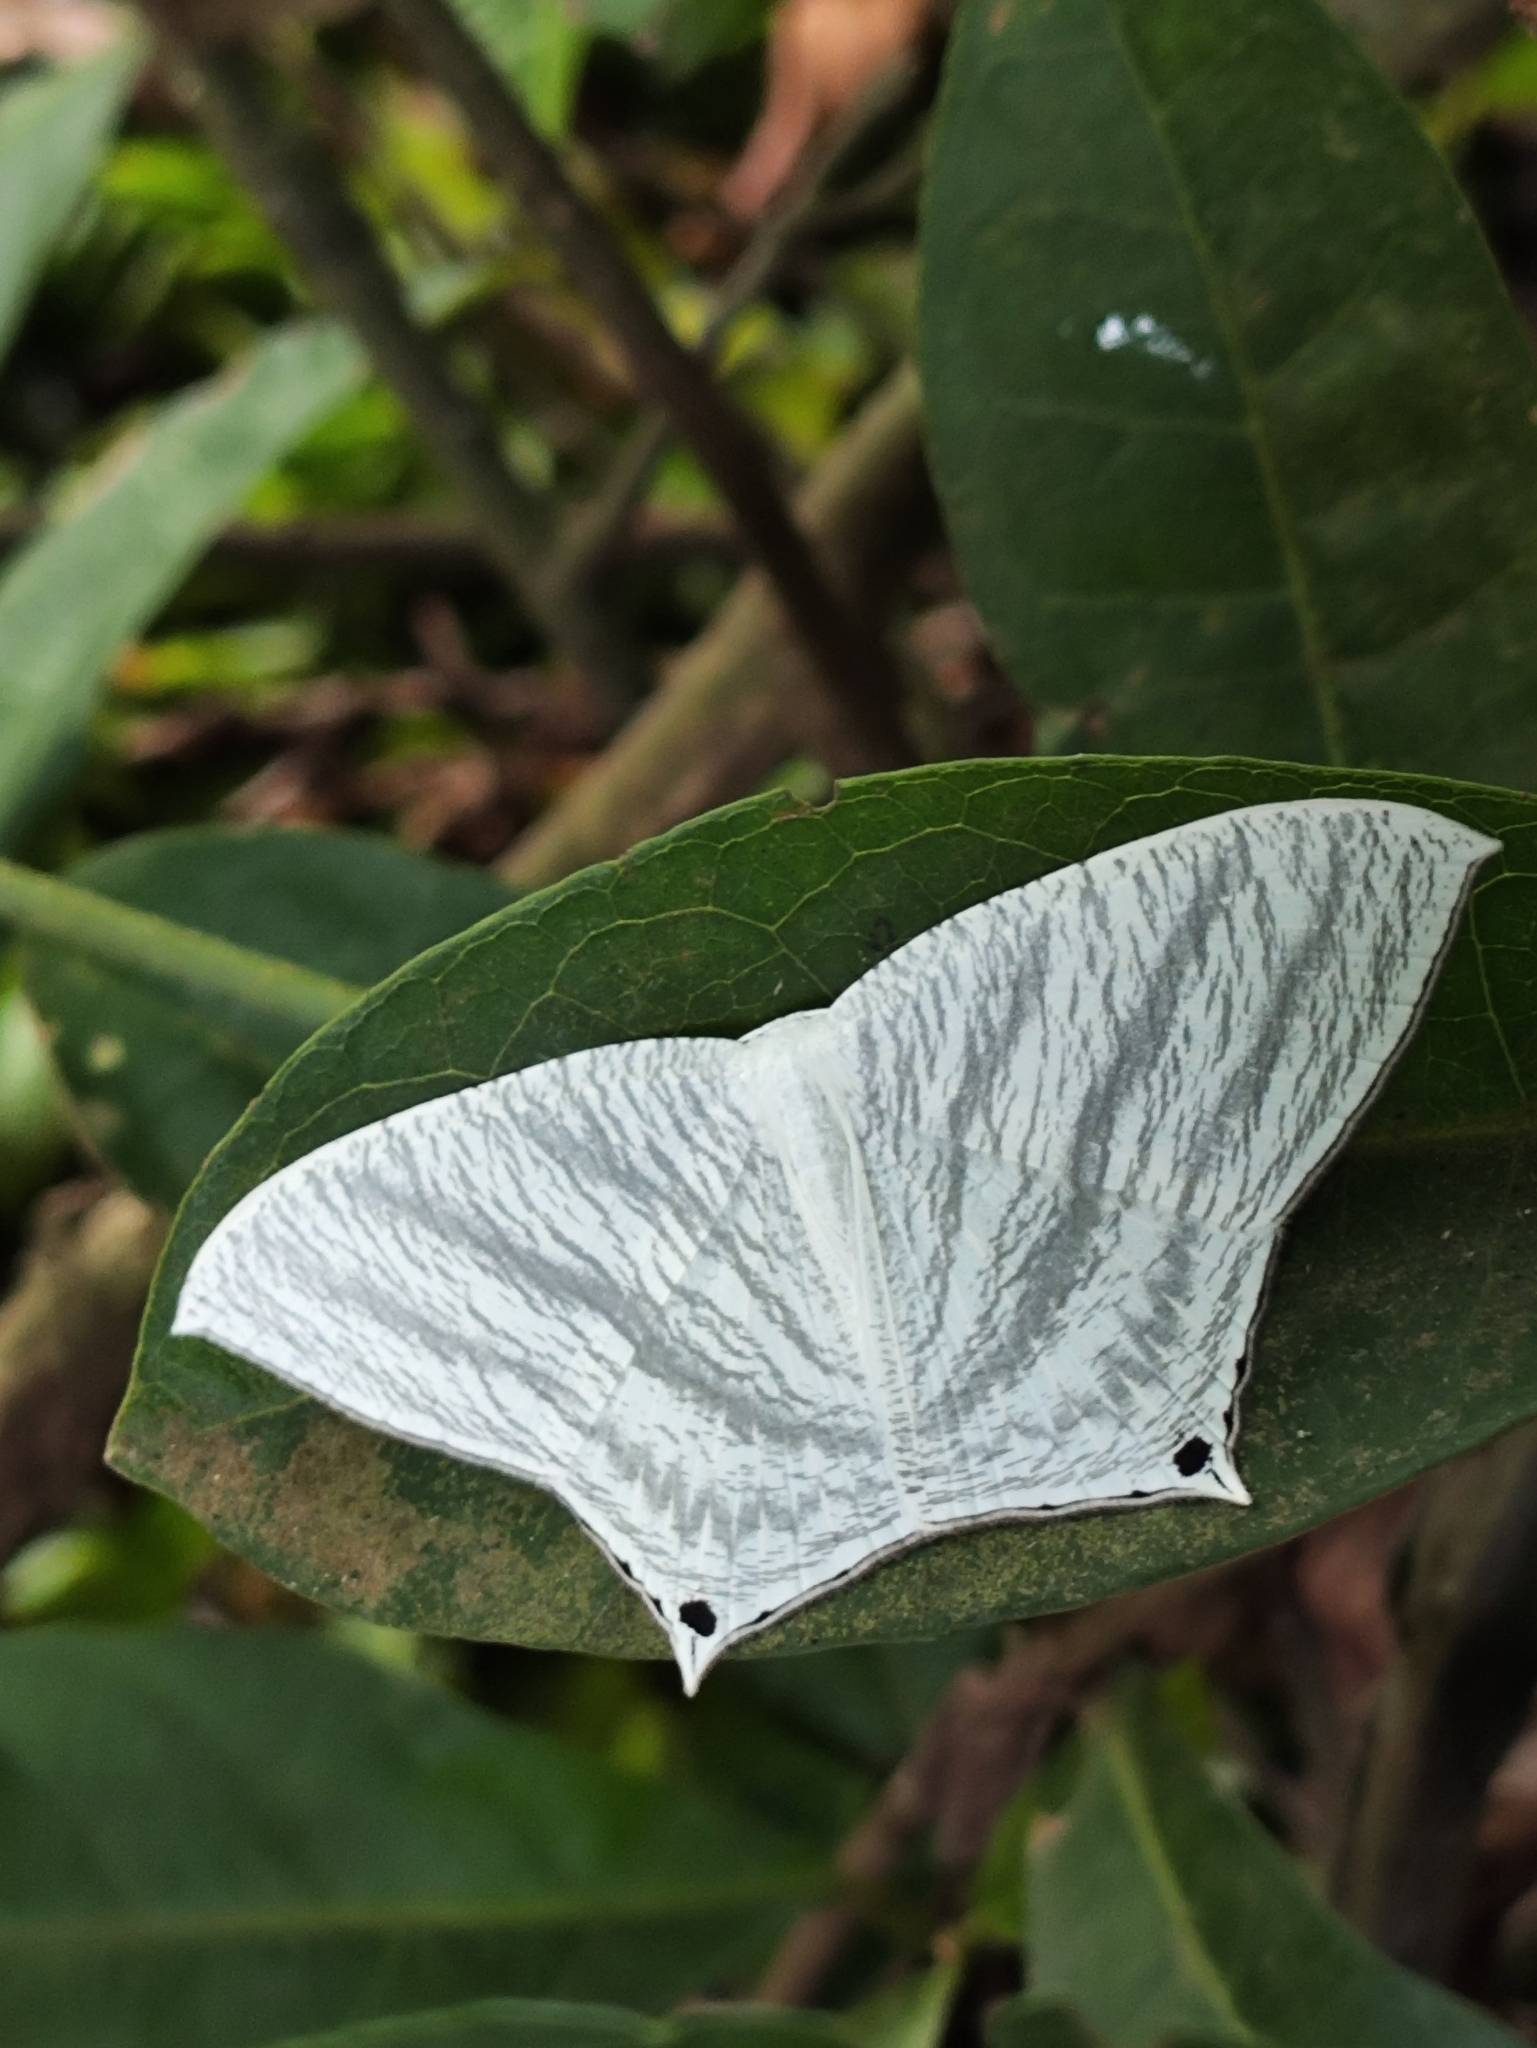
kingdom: Animalia
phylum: Arthropoda
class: Insecta
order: Lepidoptera
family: Uraniidae
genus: Micronia
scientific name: Micronia aculeata
